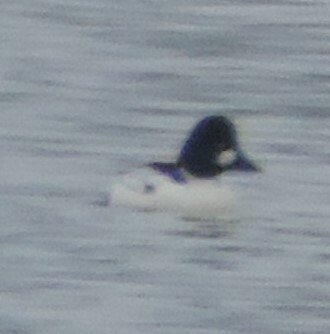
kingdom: Animalia
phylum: Chordata
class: Aves
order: Anseriformes
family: Anatidae
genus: Bucephala
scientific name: Bucephala clangula
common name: Common goldeneye
